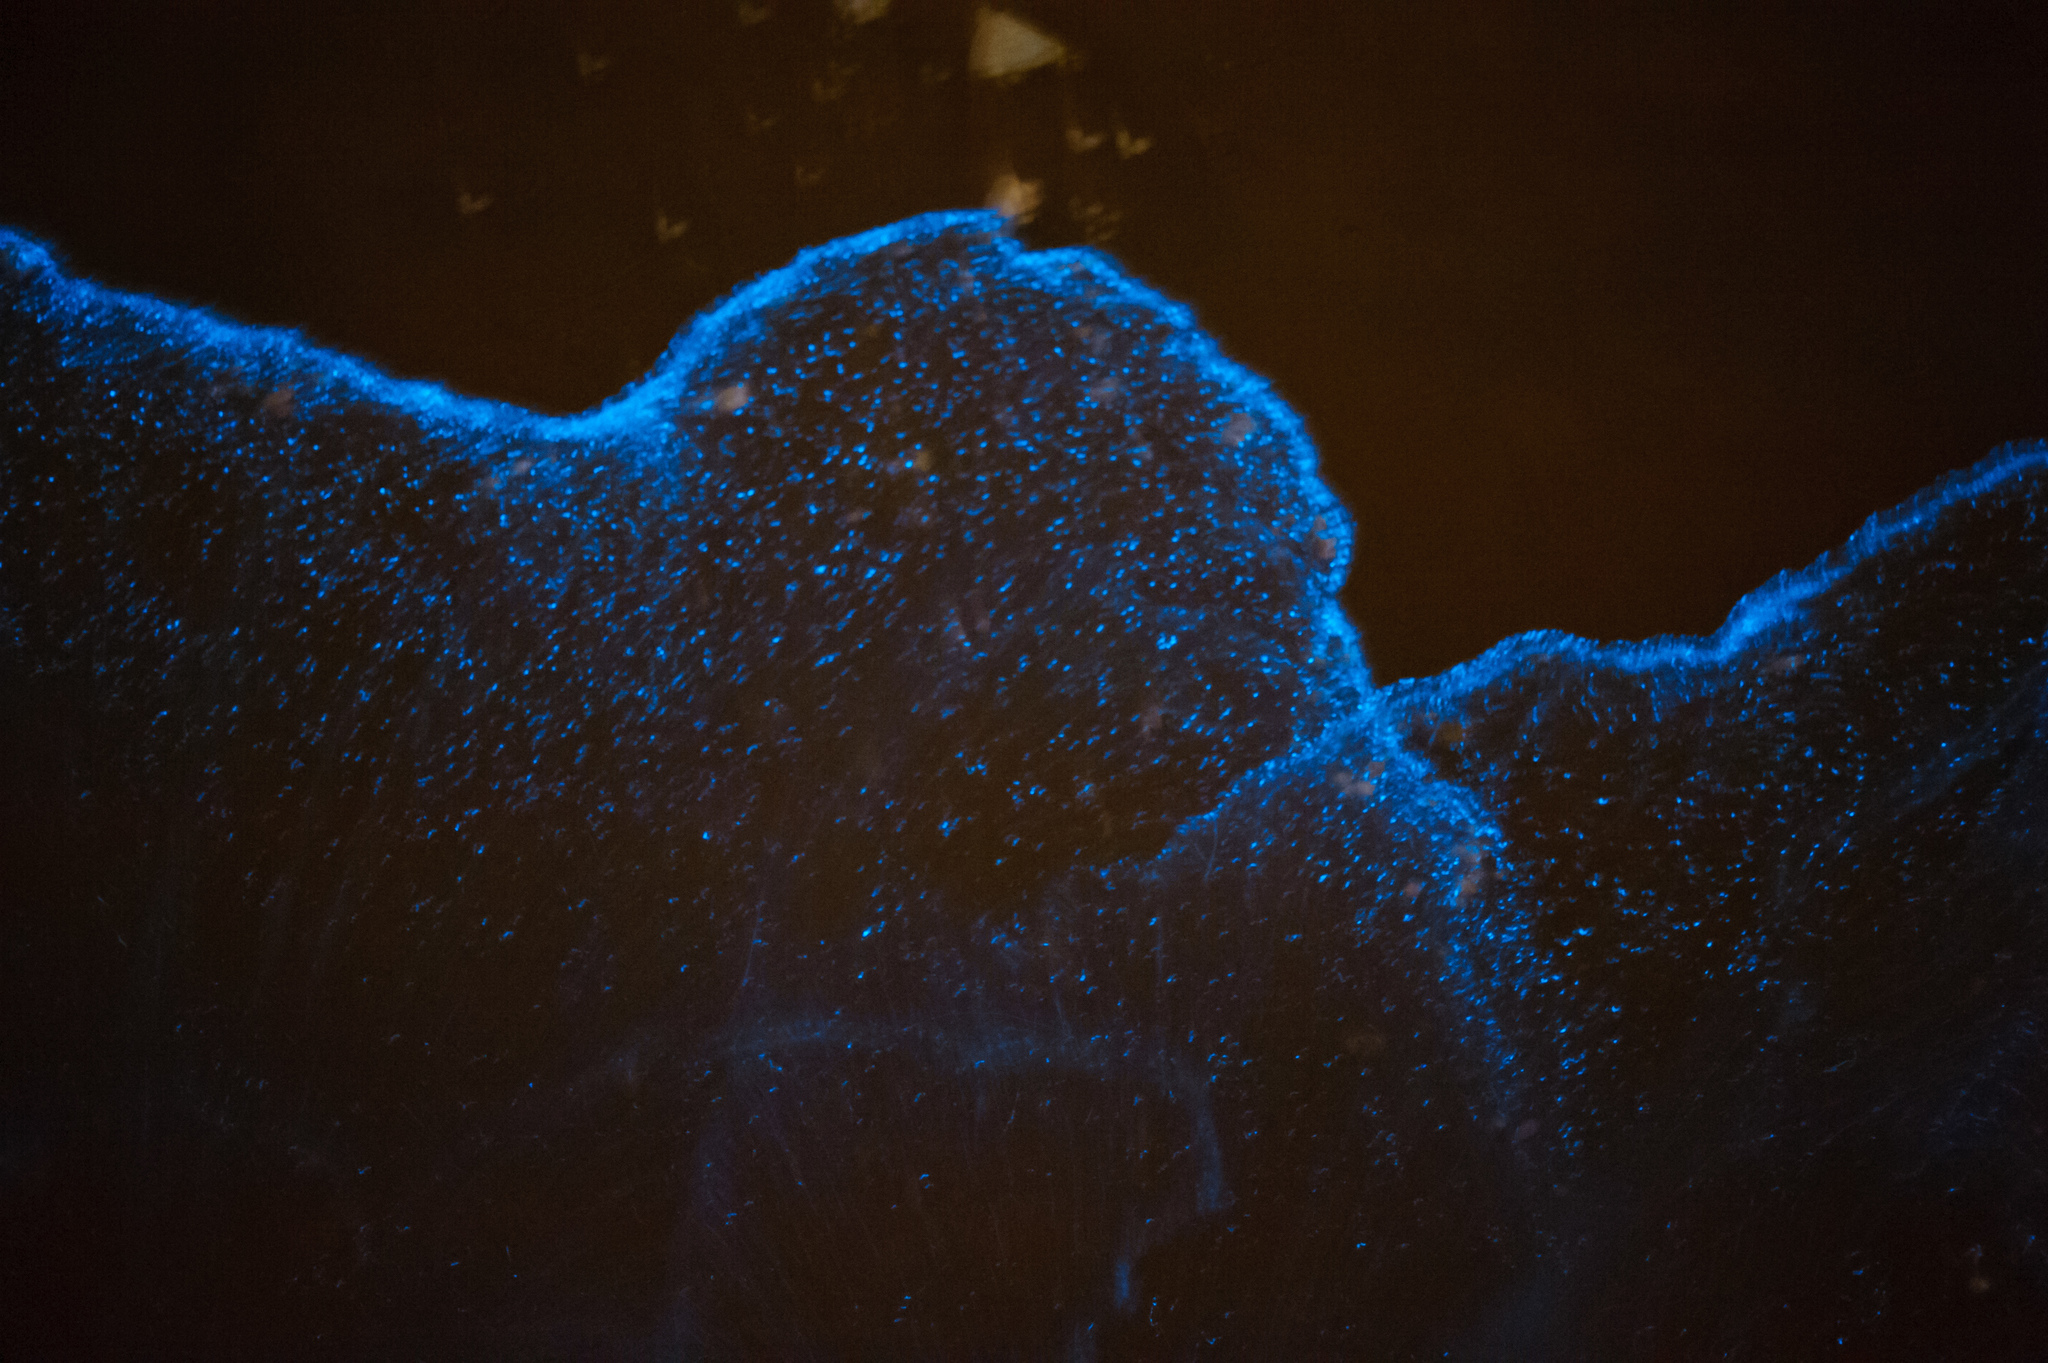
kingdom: Chromista
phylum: Myzozoa
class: Dinophyceae
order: Noctilucales
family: Noctilucaceae
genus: Noctiluca
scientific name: Noctiluca scintillans
